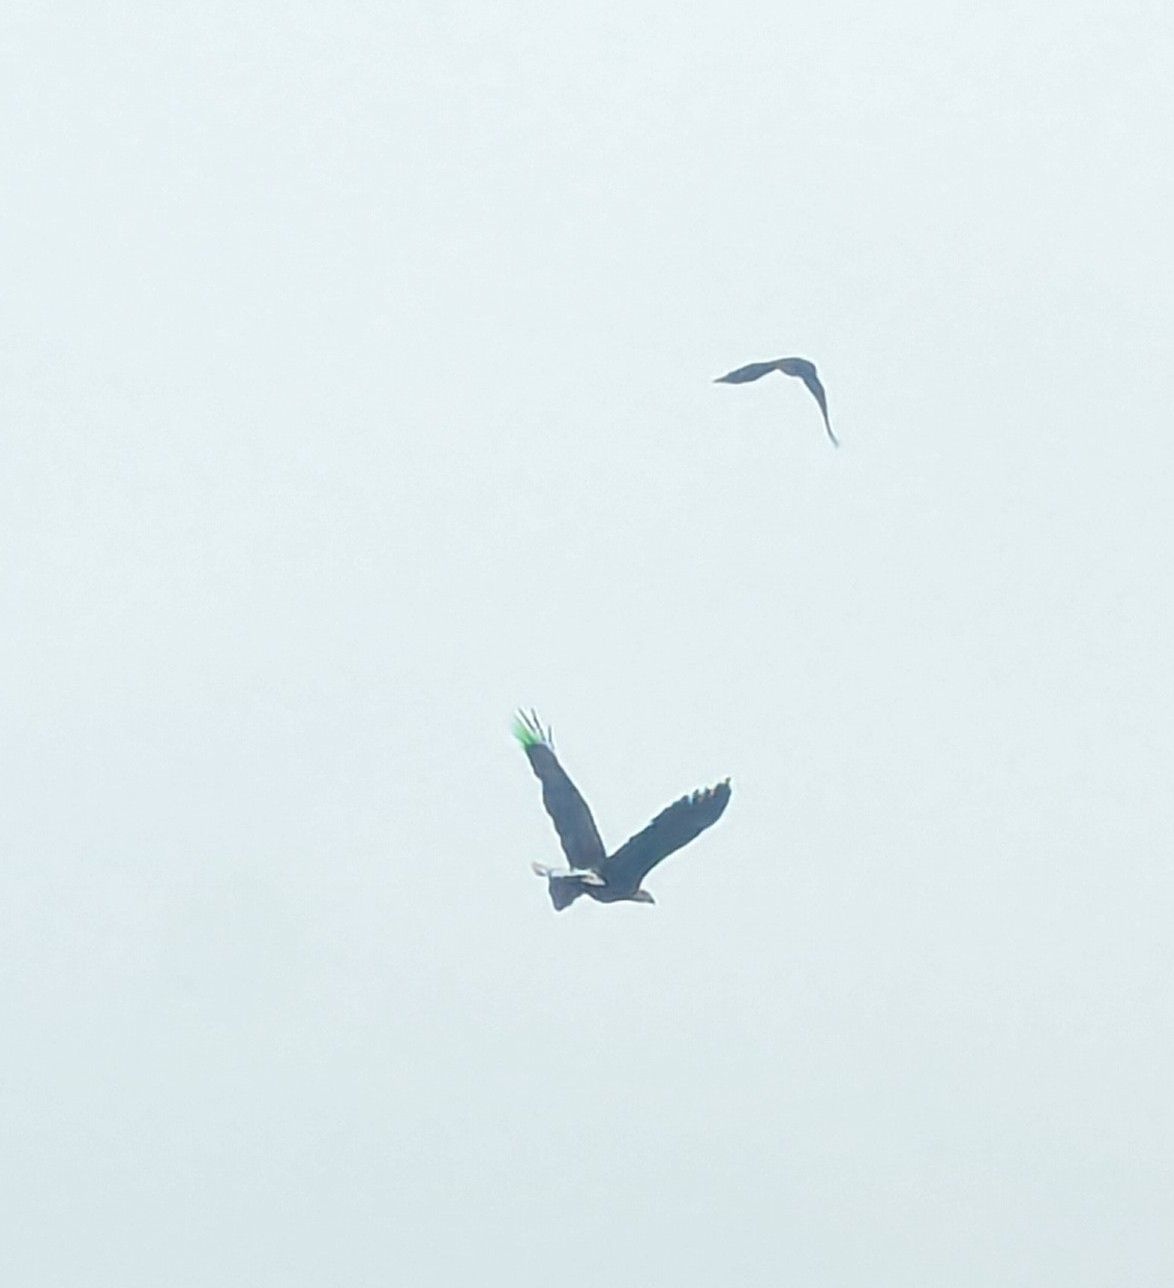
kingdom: Animalia
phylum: Chordata
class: Aves
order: Accipitriformes
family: Accipitridae
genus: Haliaeetus
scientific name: Haliaeetus leucocephalus
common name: Bald eagle
